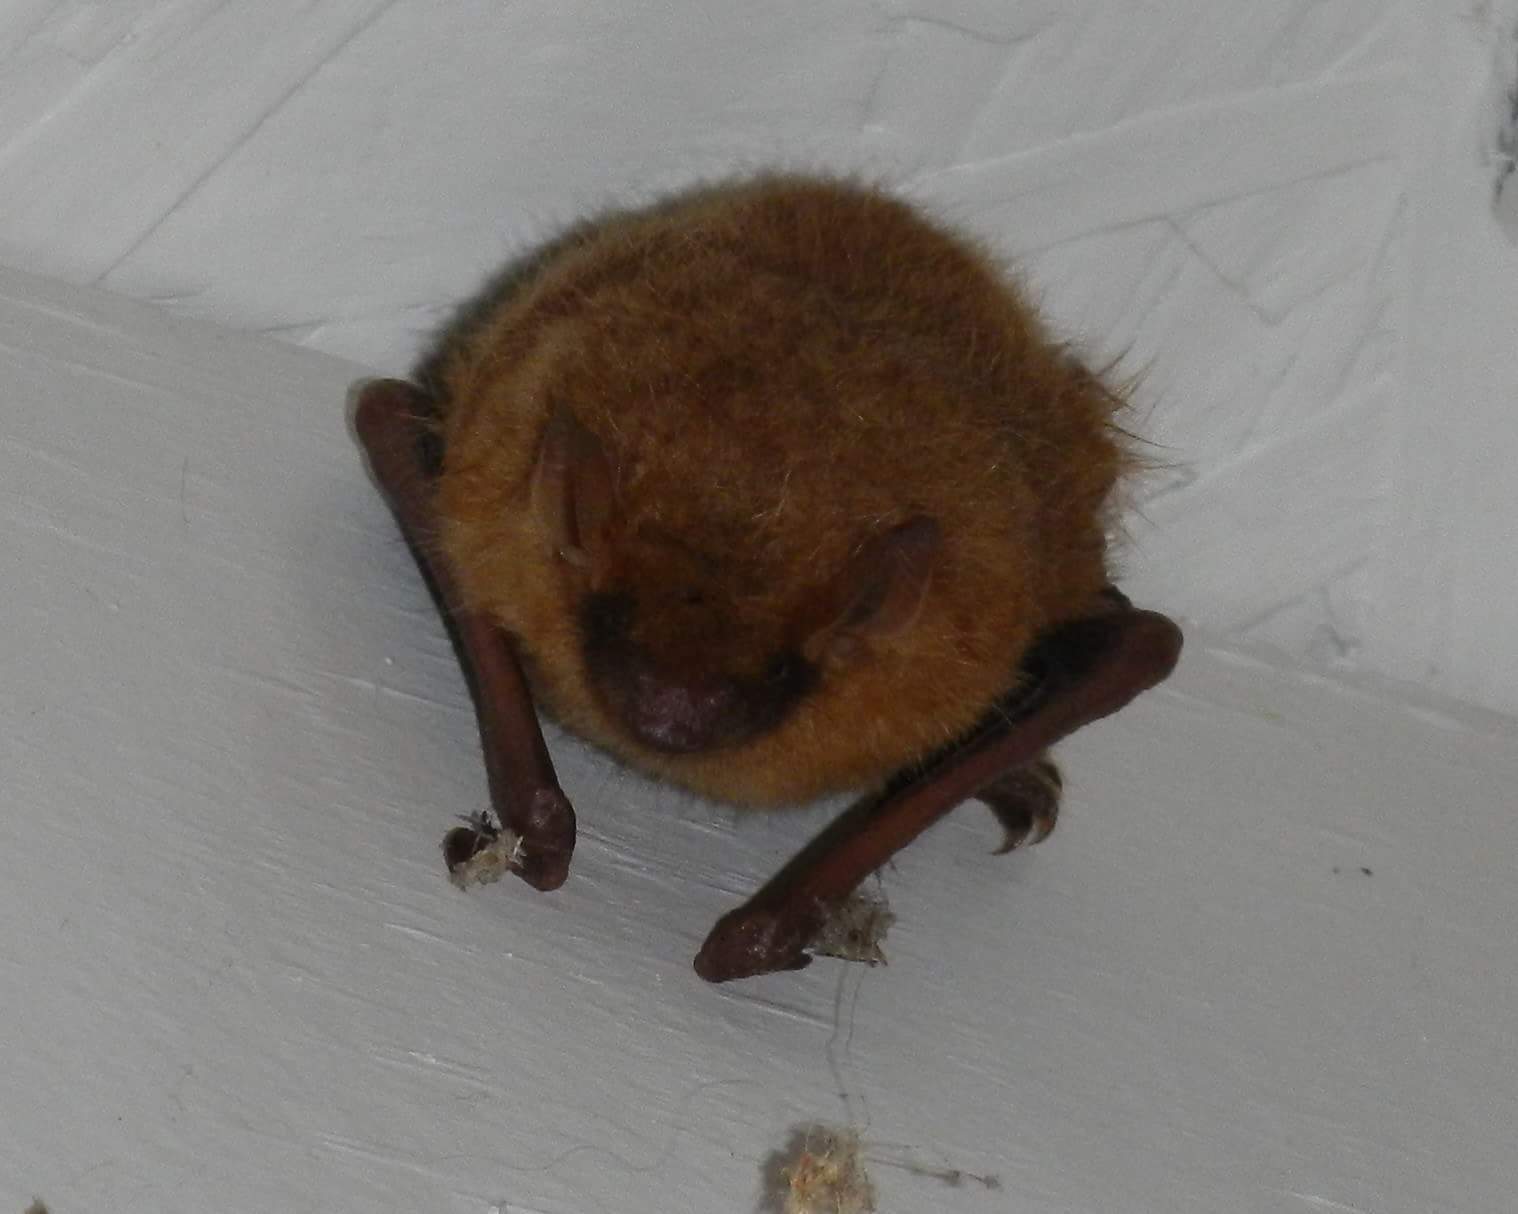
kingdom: Animalia
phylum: Chordata
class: Mammalia
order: Chiroptera
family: Vespertilionidae
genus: Perimyotis
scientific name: Perimyotis subflavus
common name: Eastern pipistrelle
